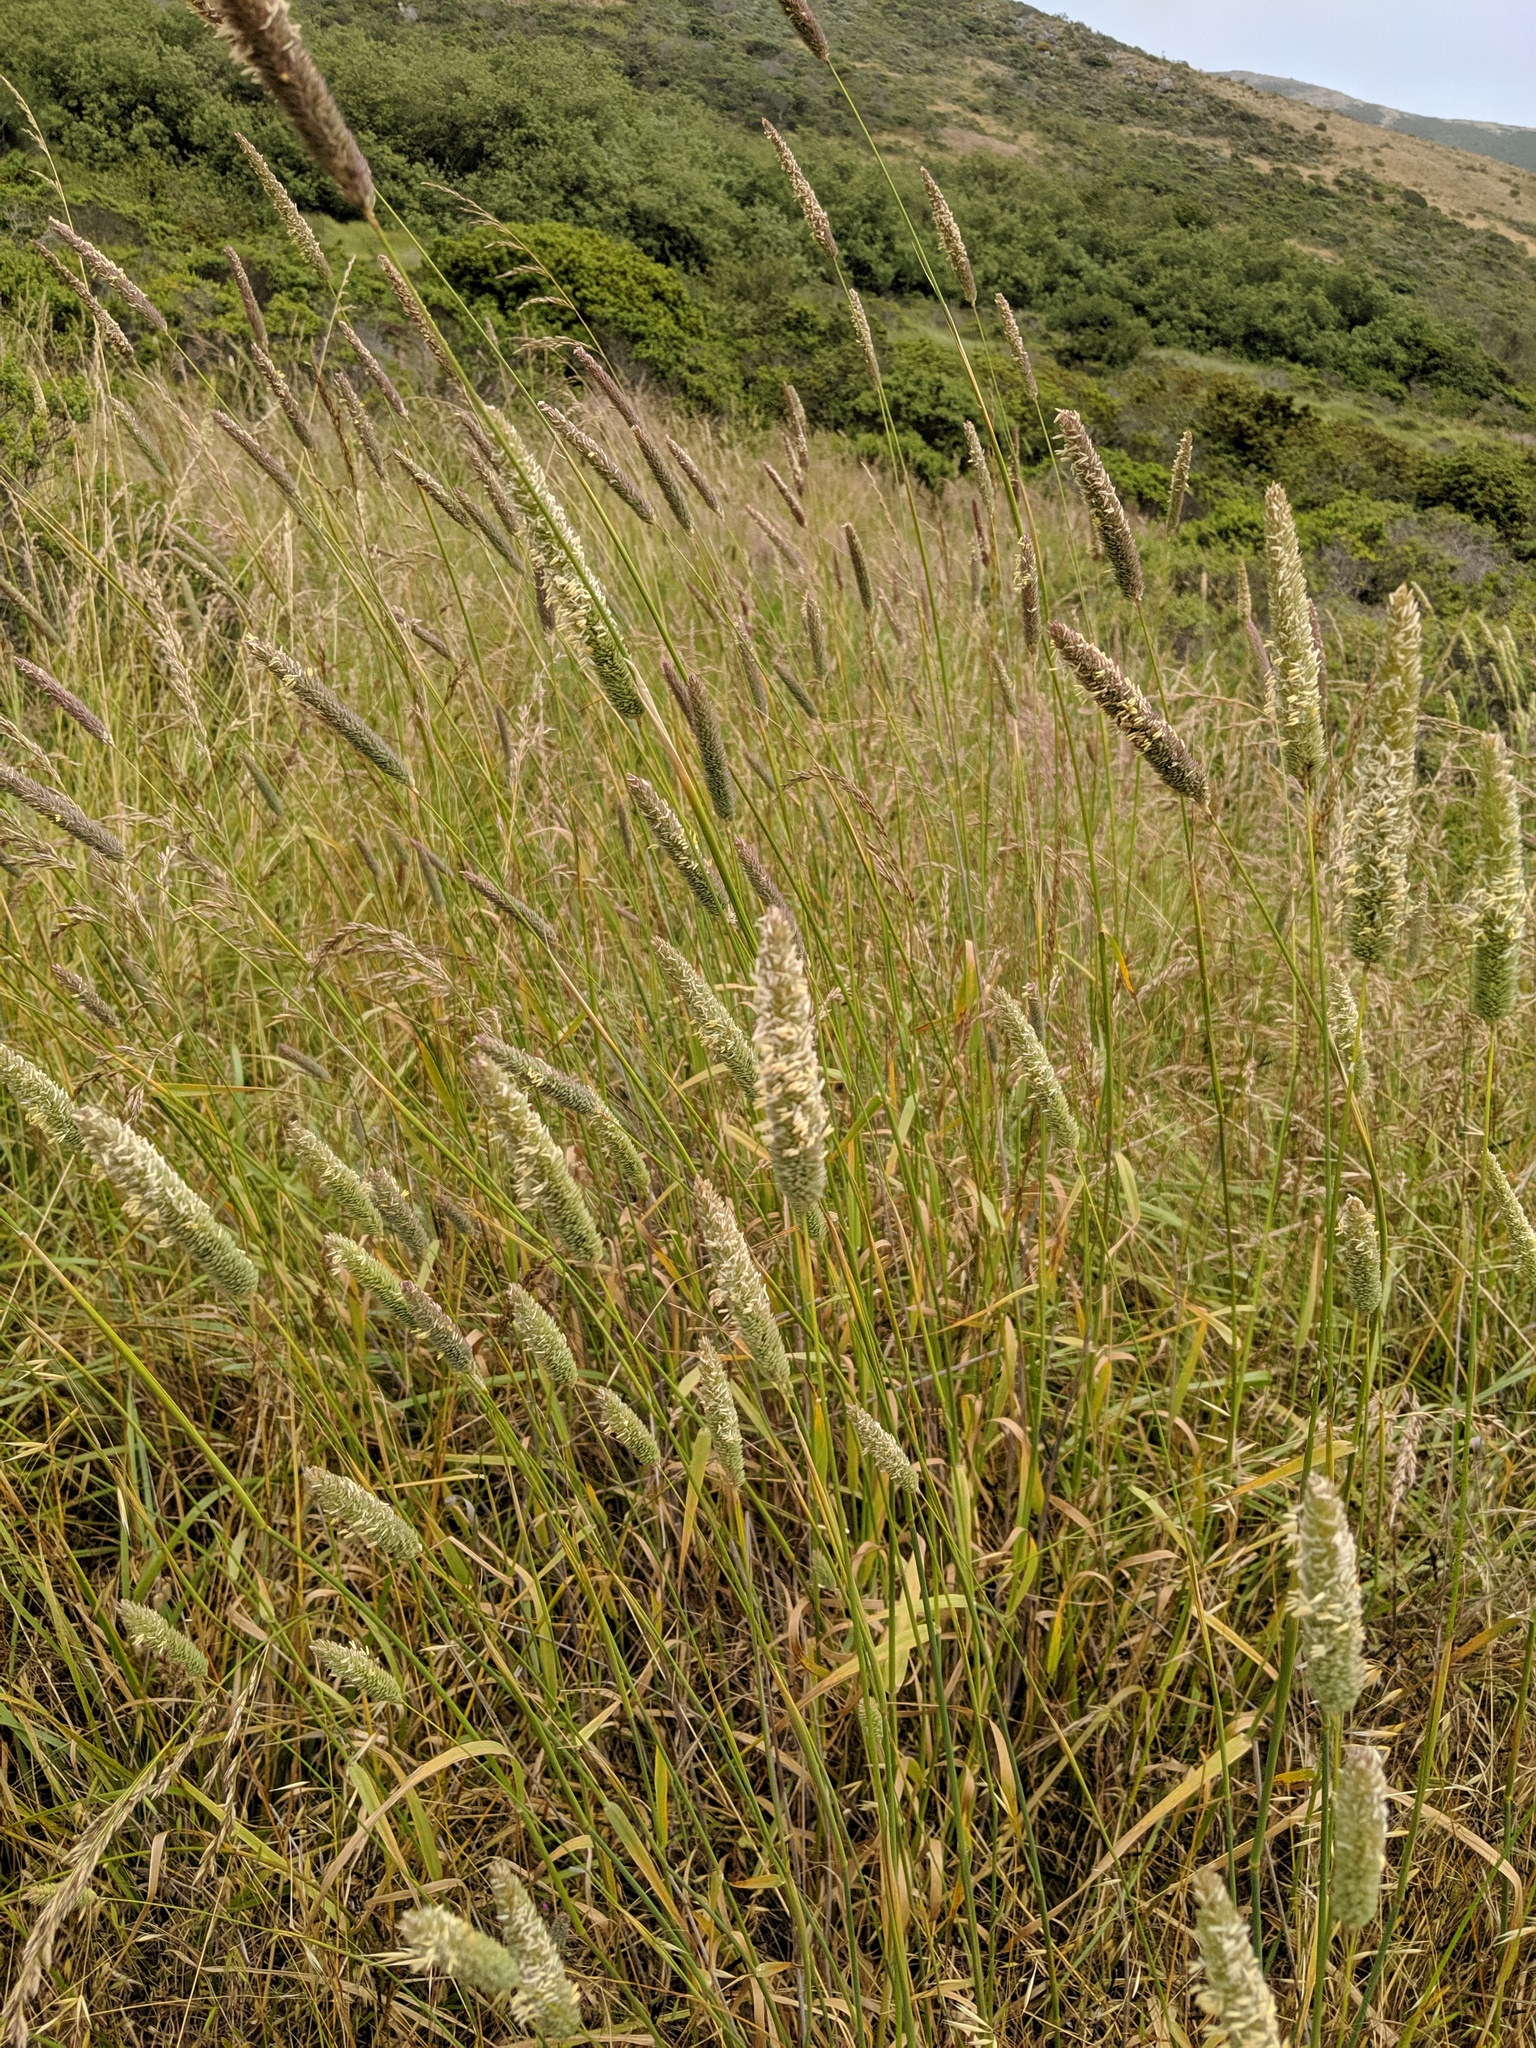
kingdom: Plantae
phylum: Tracheophyta
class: Liliopsida
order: Poales
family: Poaceae
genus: Phalaris
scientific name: Phalaris aquatica
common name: Bulbous canary-grass
